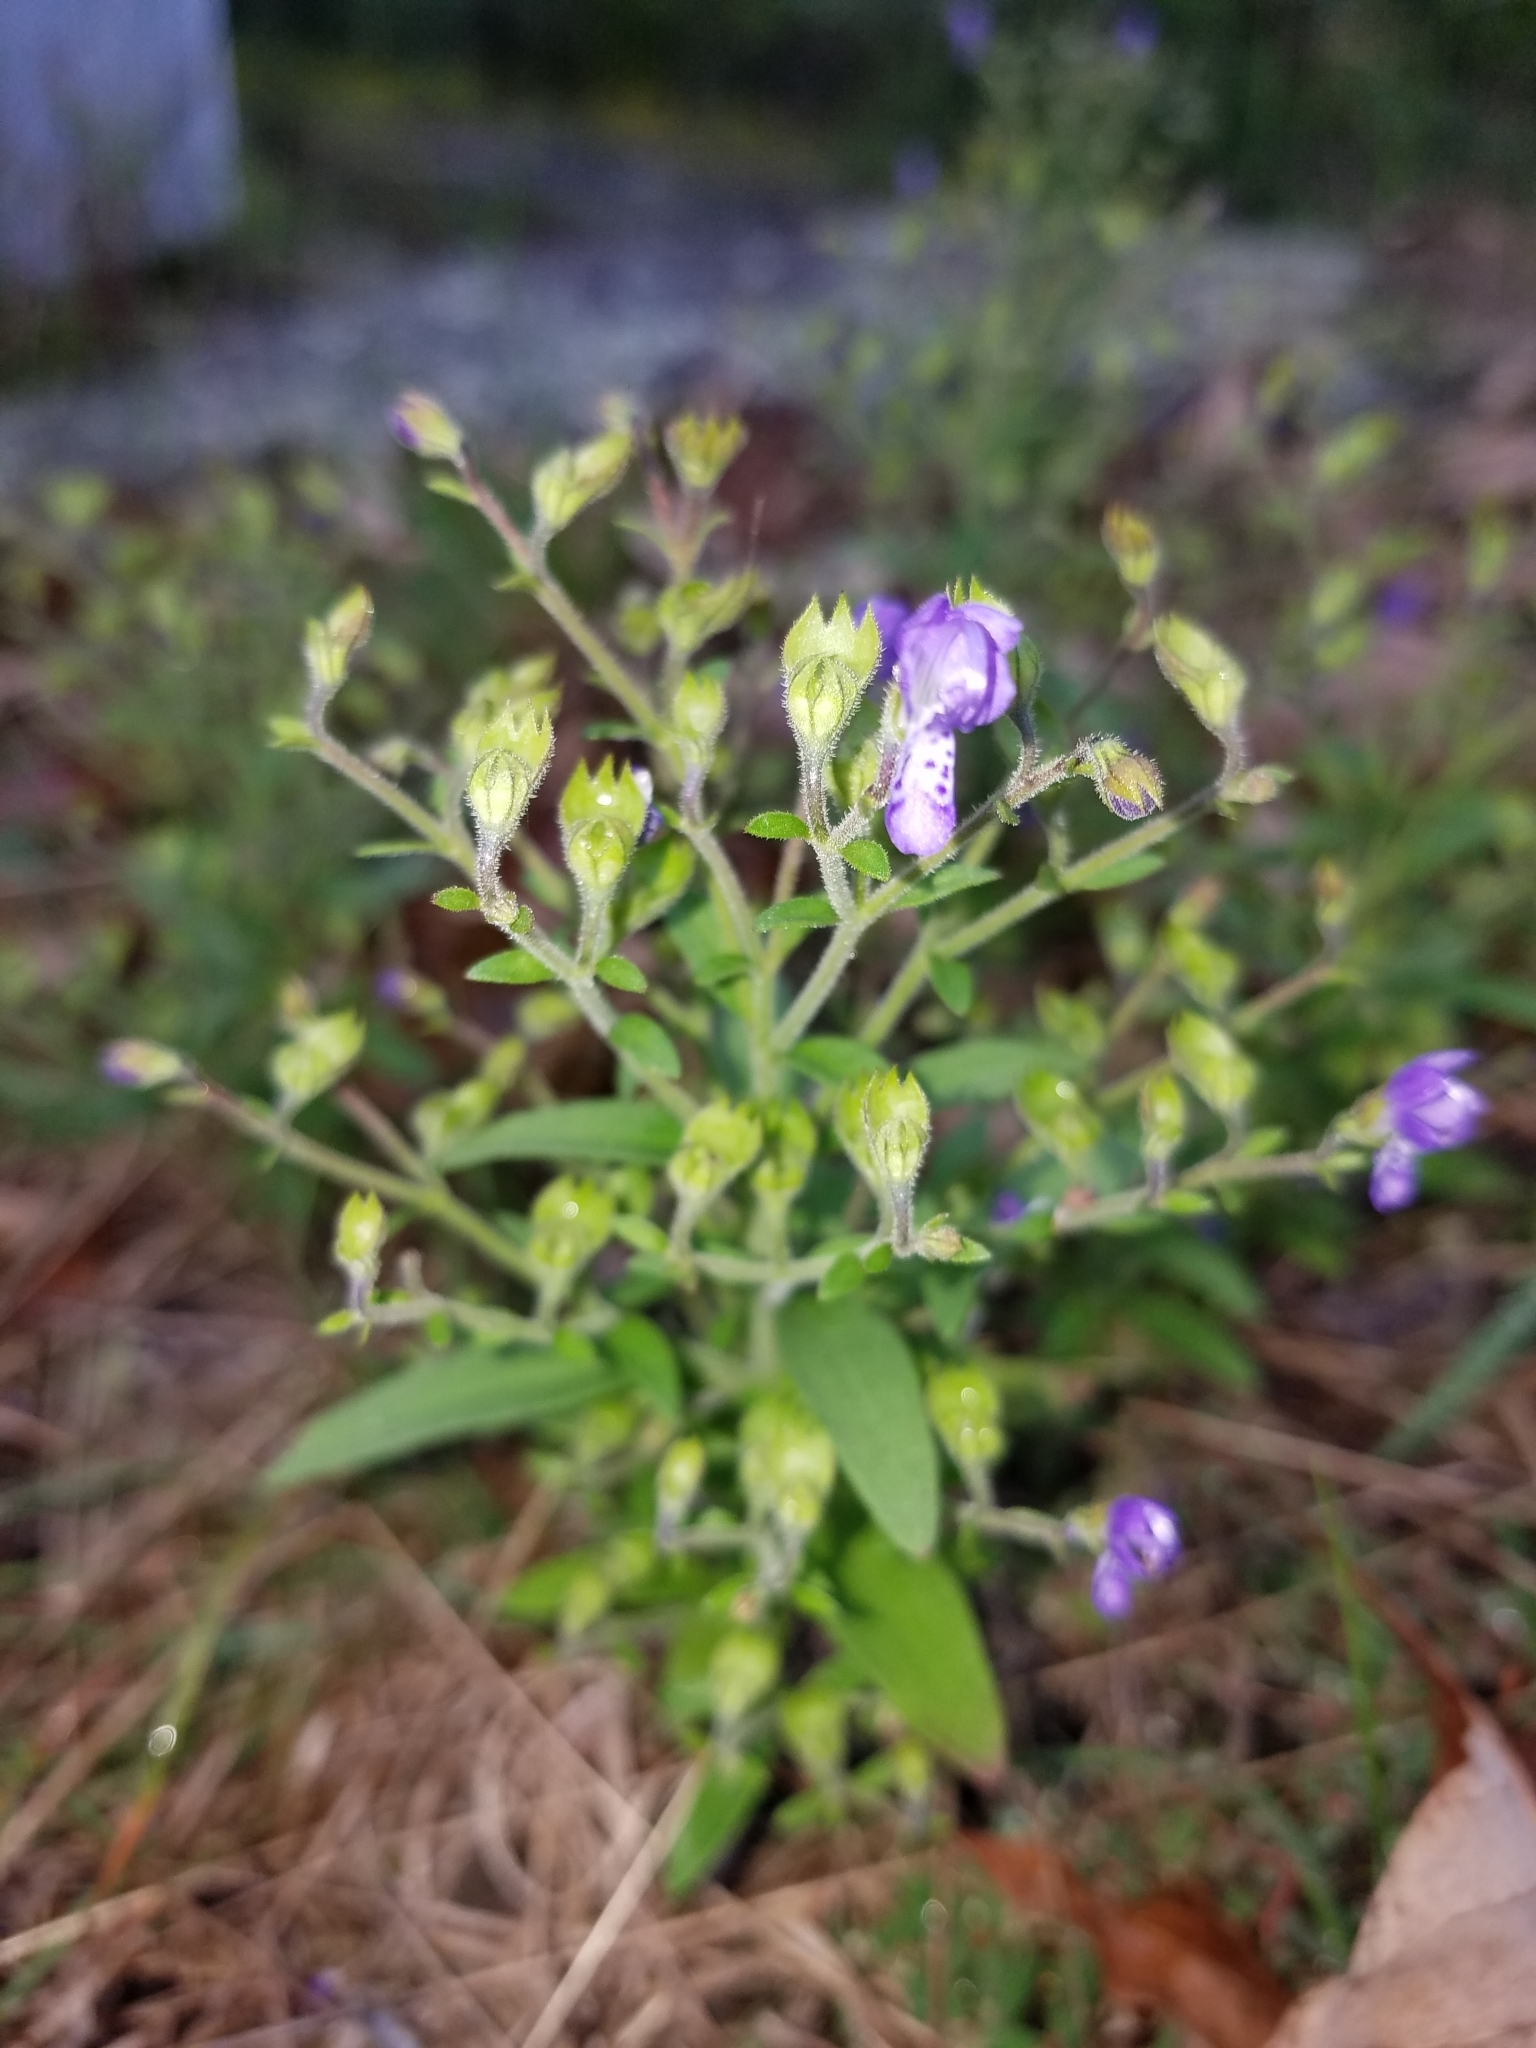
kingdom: Plantae
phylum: Tracheophyta
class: Magnoliopsida
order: Lamiales
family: Lamiaceae
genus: Trichostema
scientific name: Trichostema dichotomum
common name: Bastard pennyroyal
